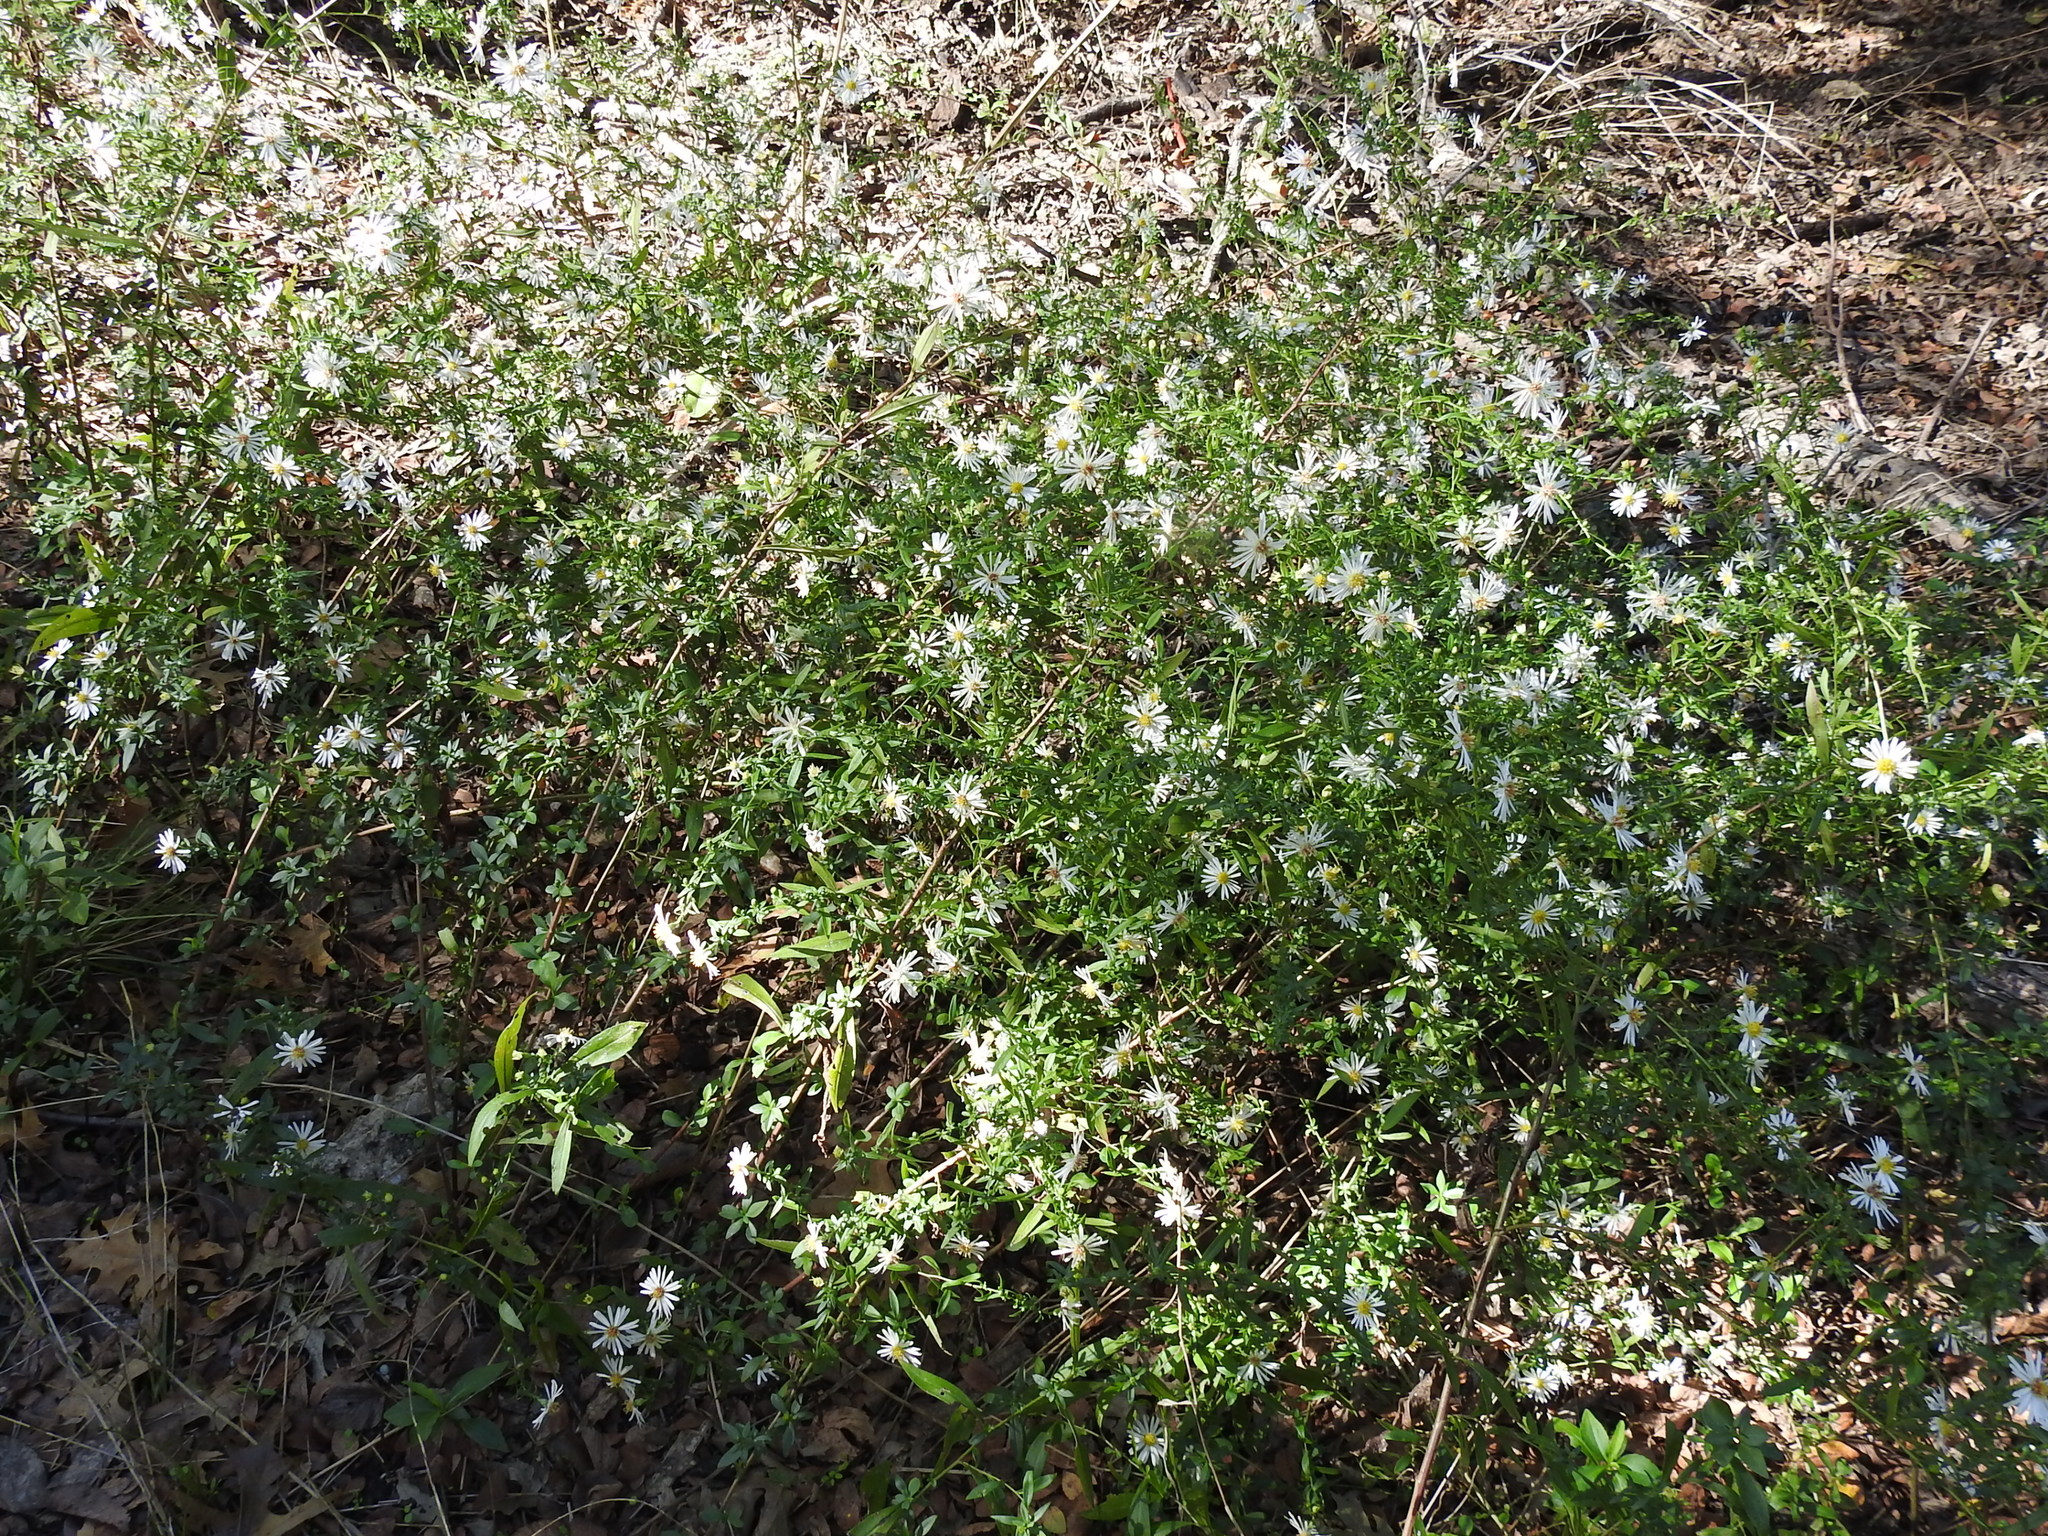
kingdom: Plantae
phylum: Tracheophyta
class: Magnoliopsida
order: Asterales
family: Asteraceae
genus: Symphyotrichum
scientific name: Symphyotrichum lanceolatum
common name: Panicled aster
